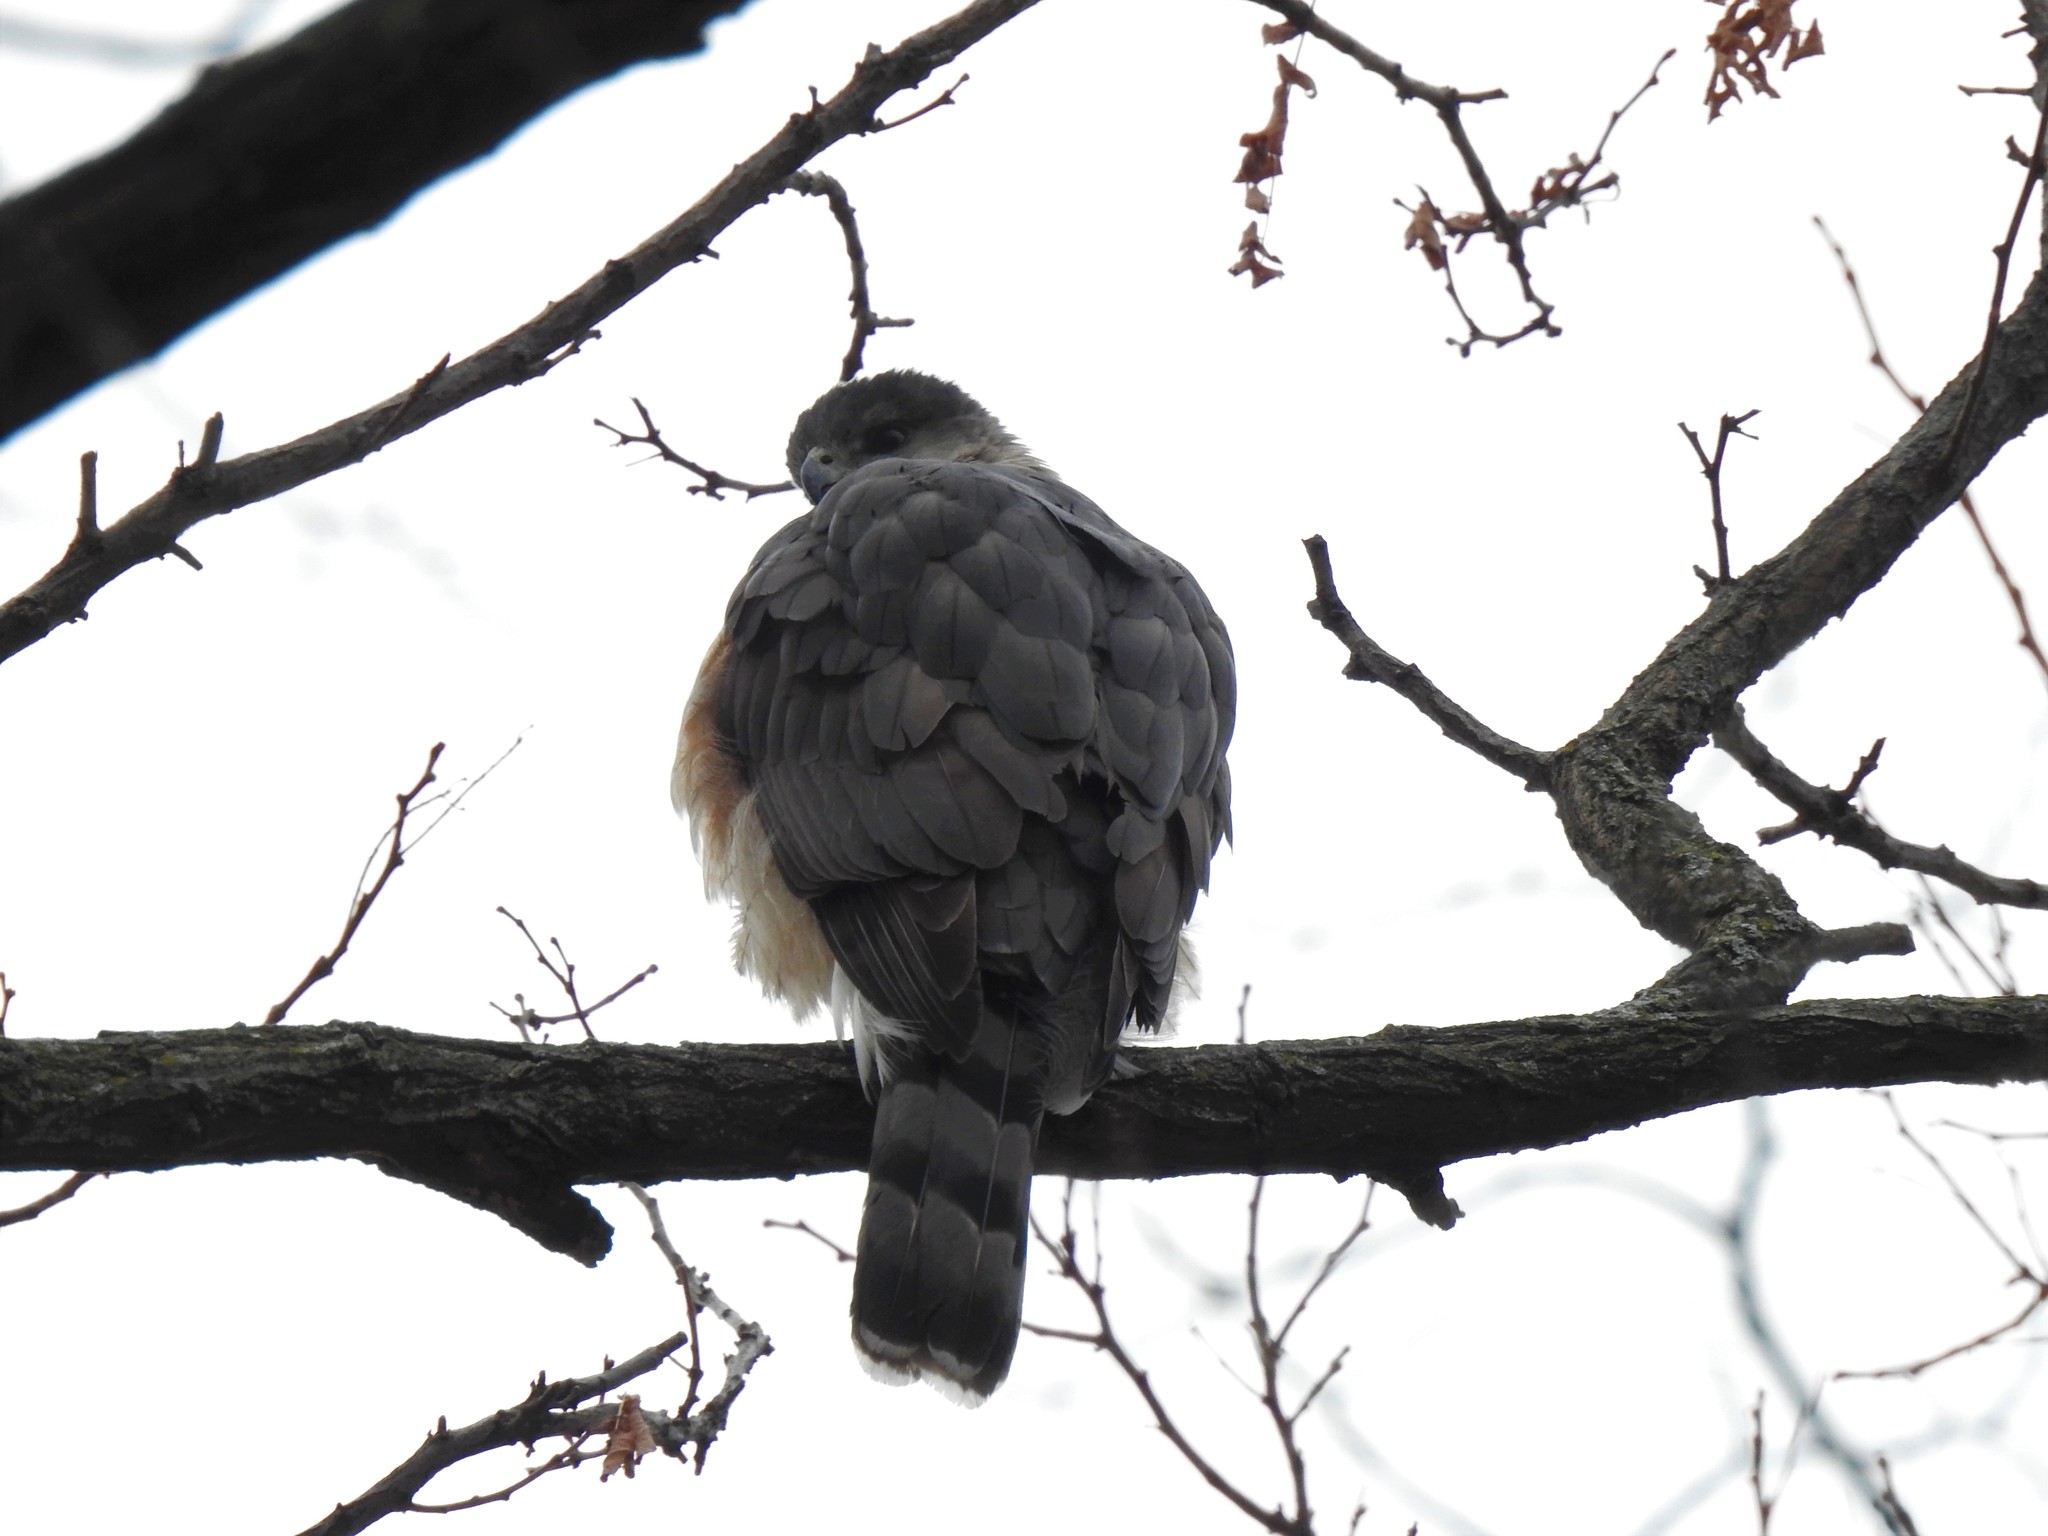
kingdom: Animalia
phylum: Chordata
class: Aves
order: Accipitriformes
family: Accipitridae
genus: Accipiter
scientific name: Accipiter cooperii
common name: Cooper's hawk
